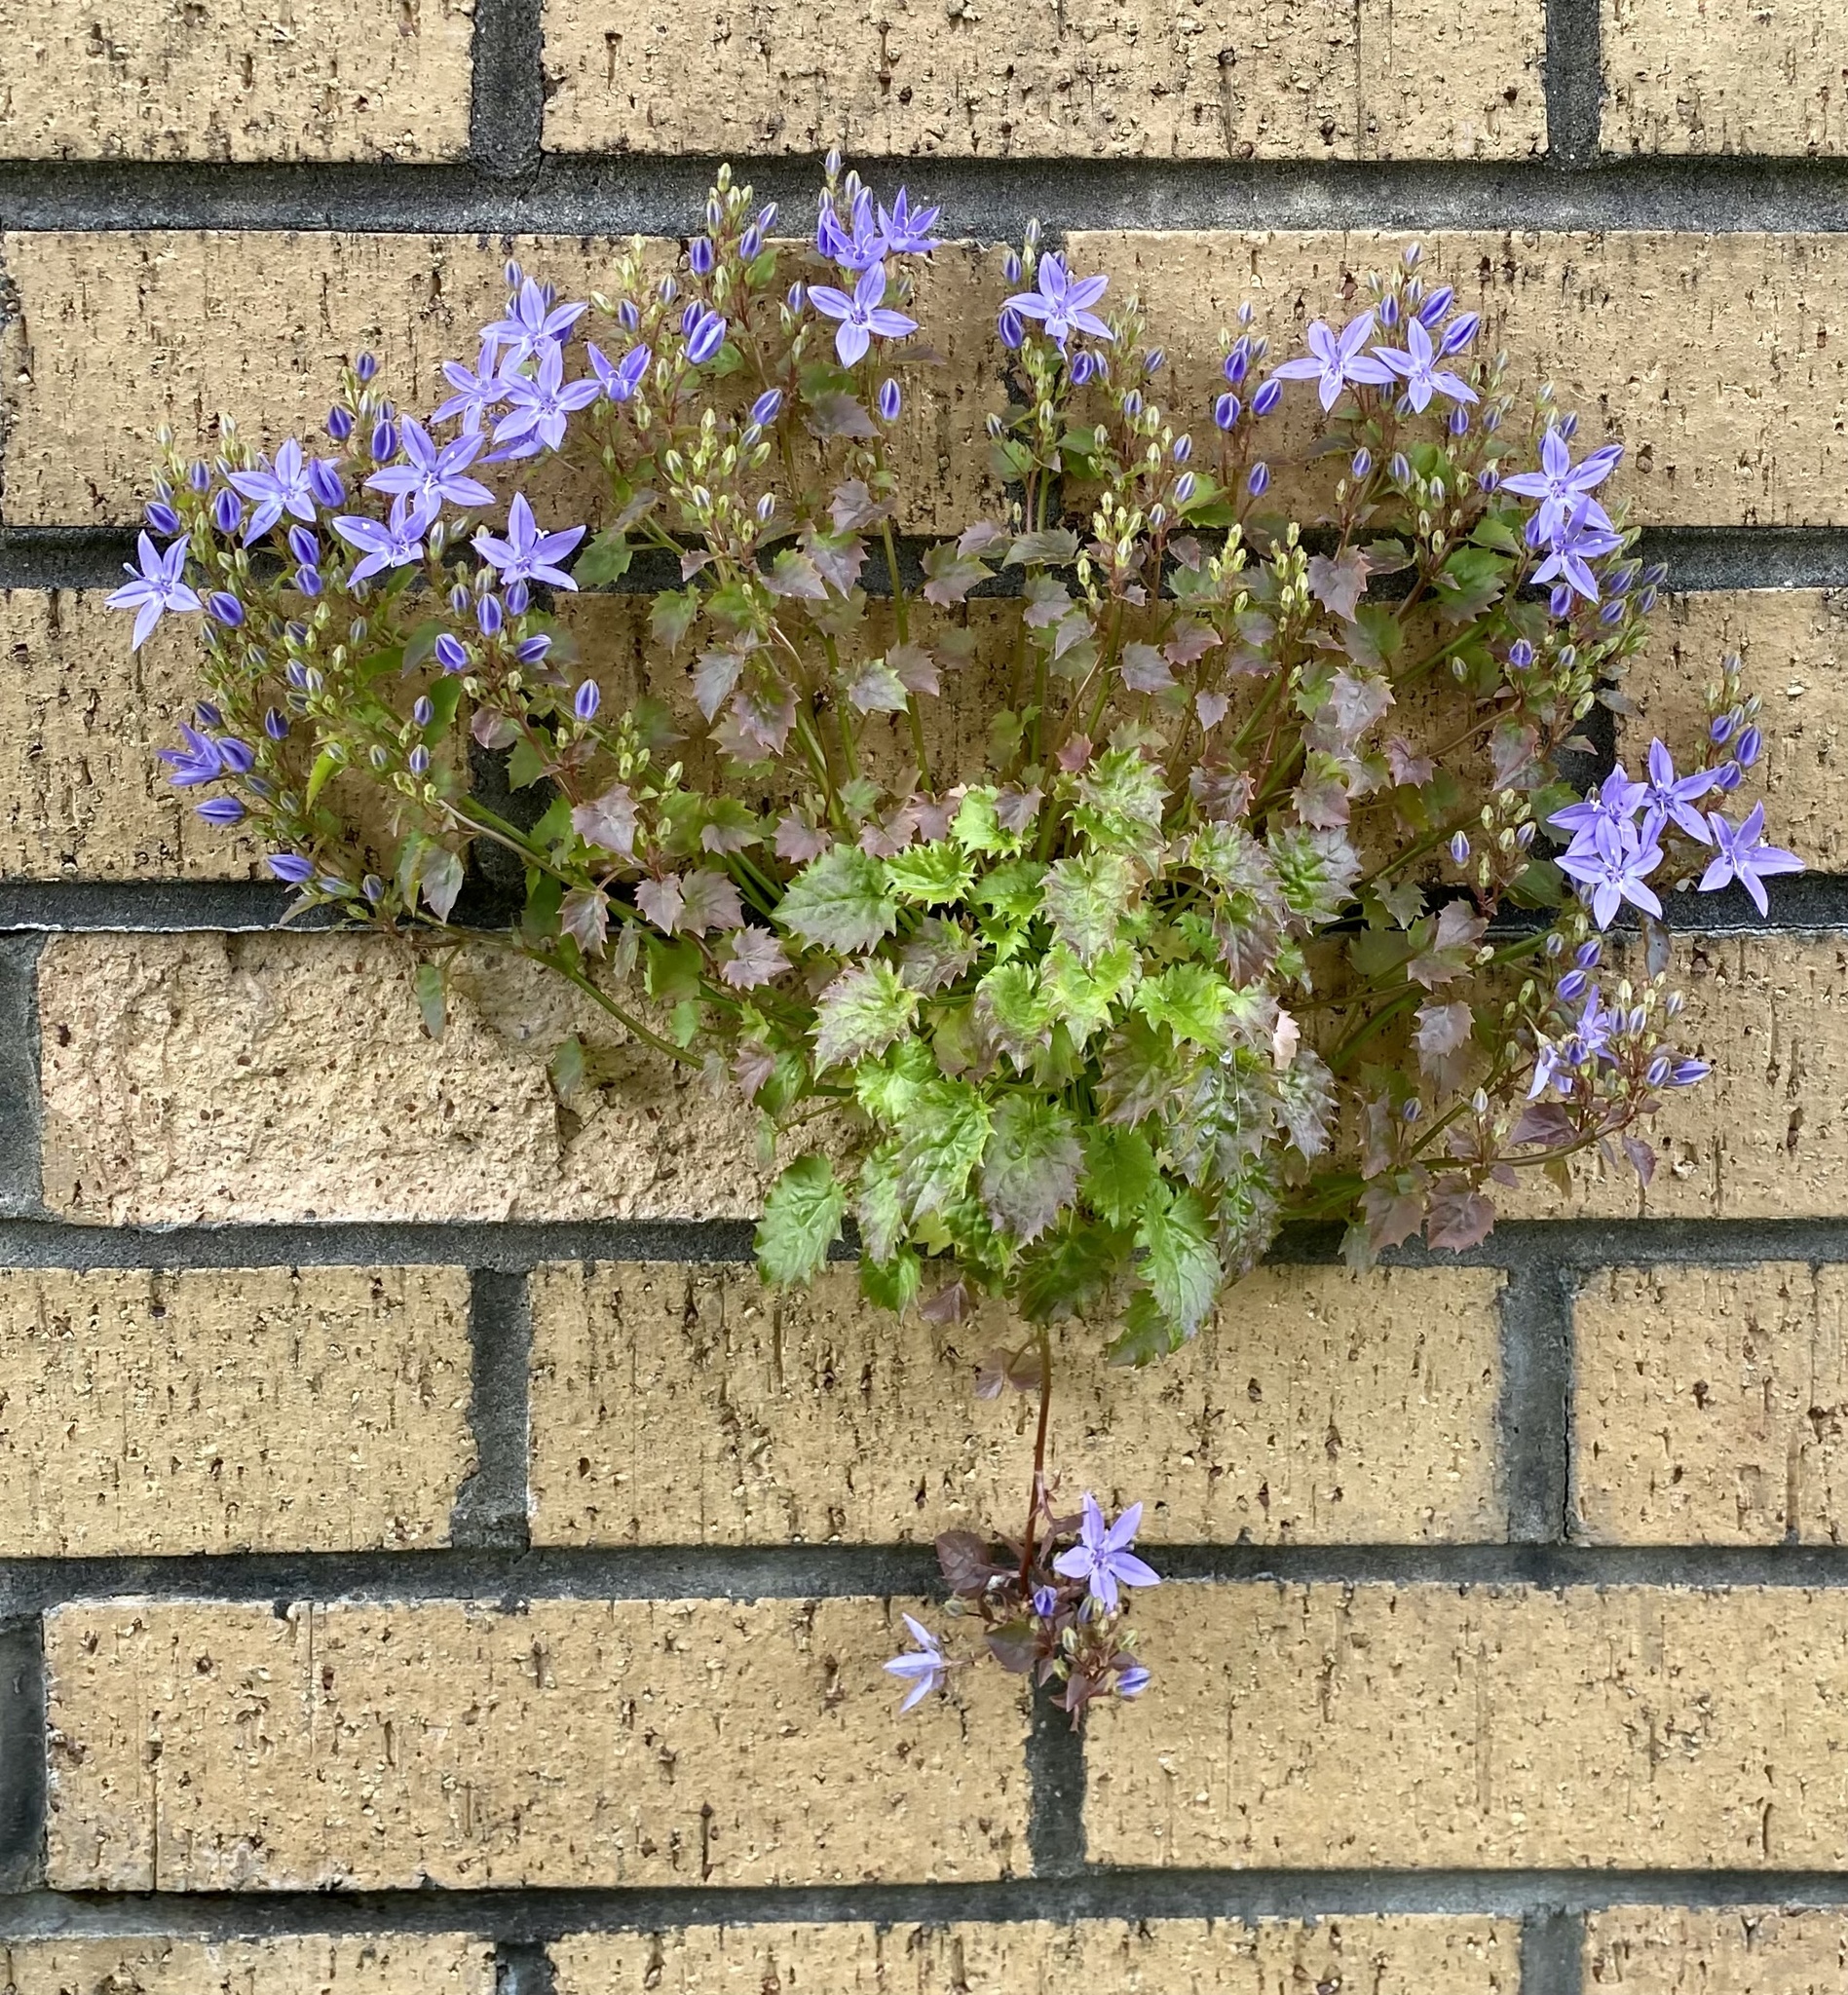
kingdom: Plantae
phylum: Tracheophyta
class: Magnoliopsida
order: Asterales
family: Campanulaceae
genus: Campanula
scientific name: Campanula poscharskyana
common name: Trailing bellflower
